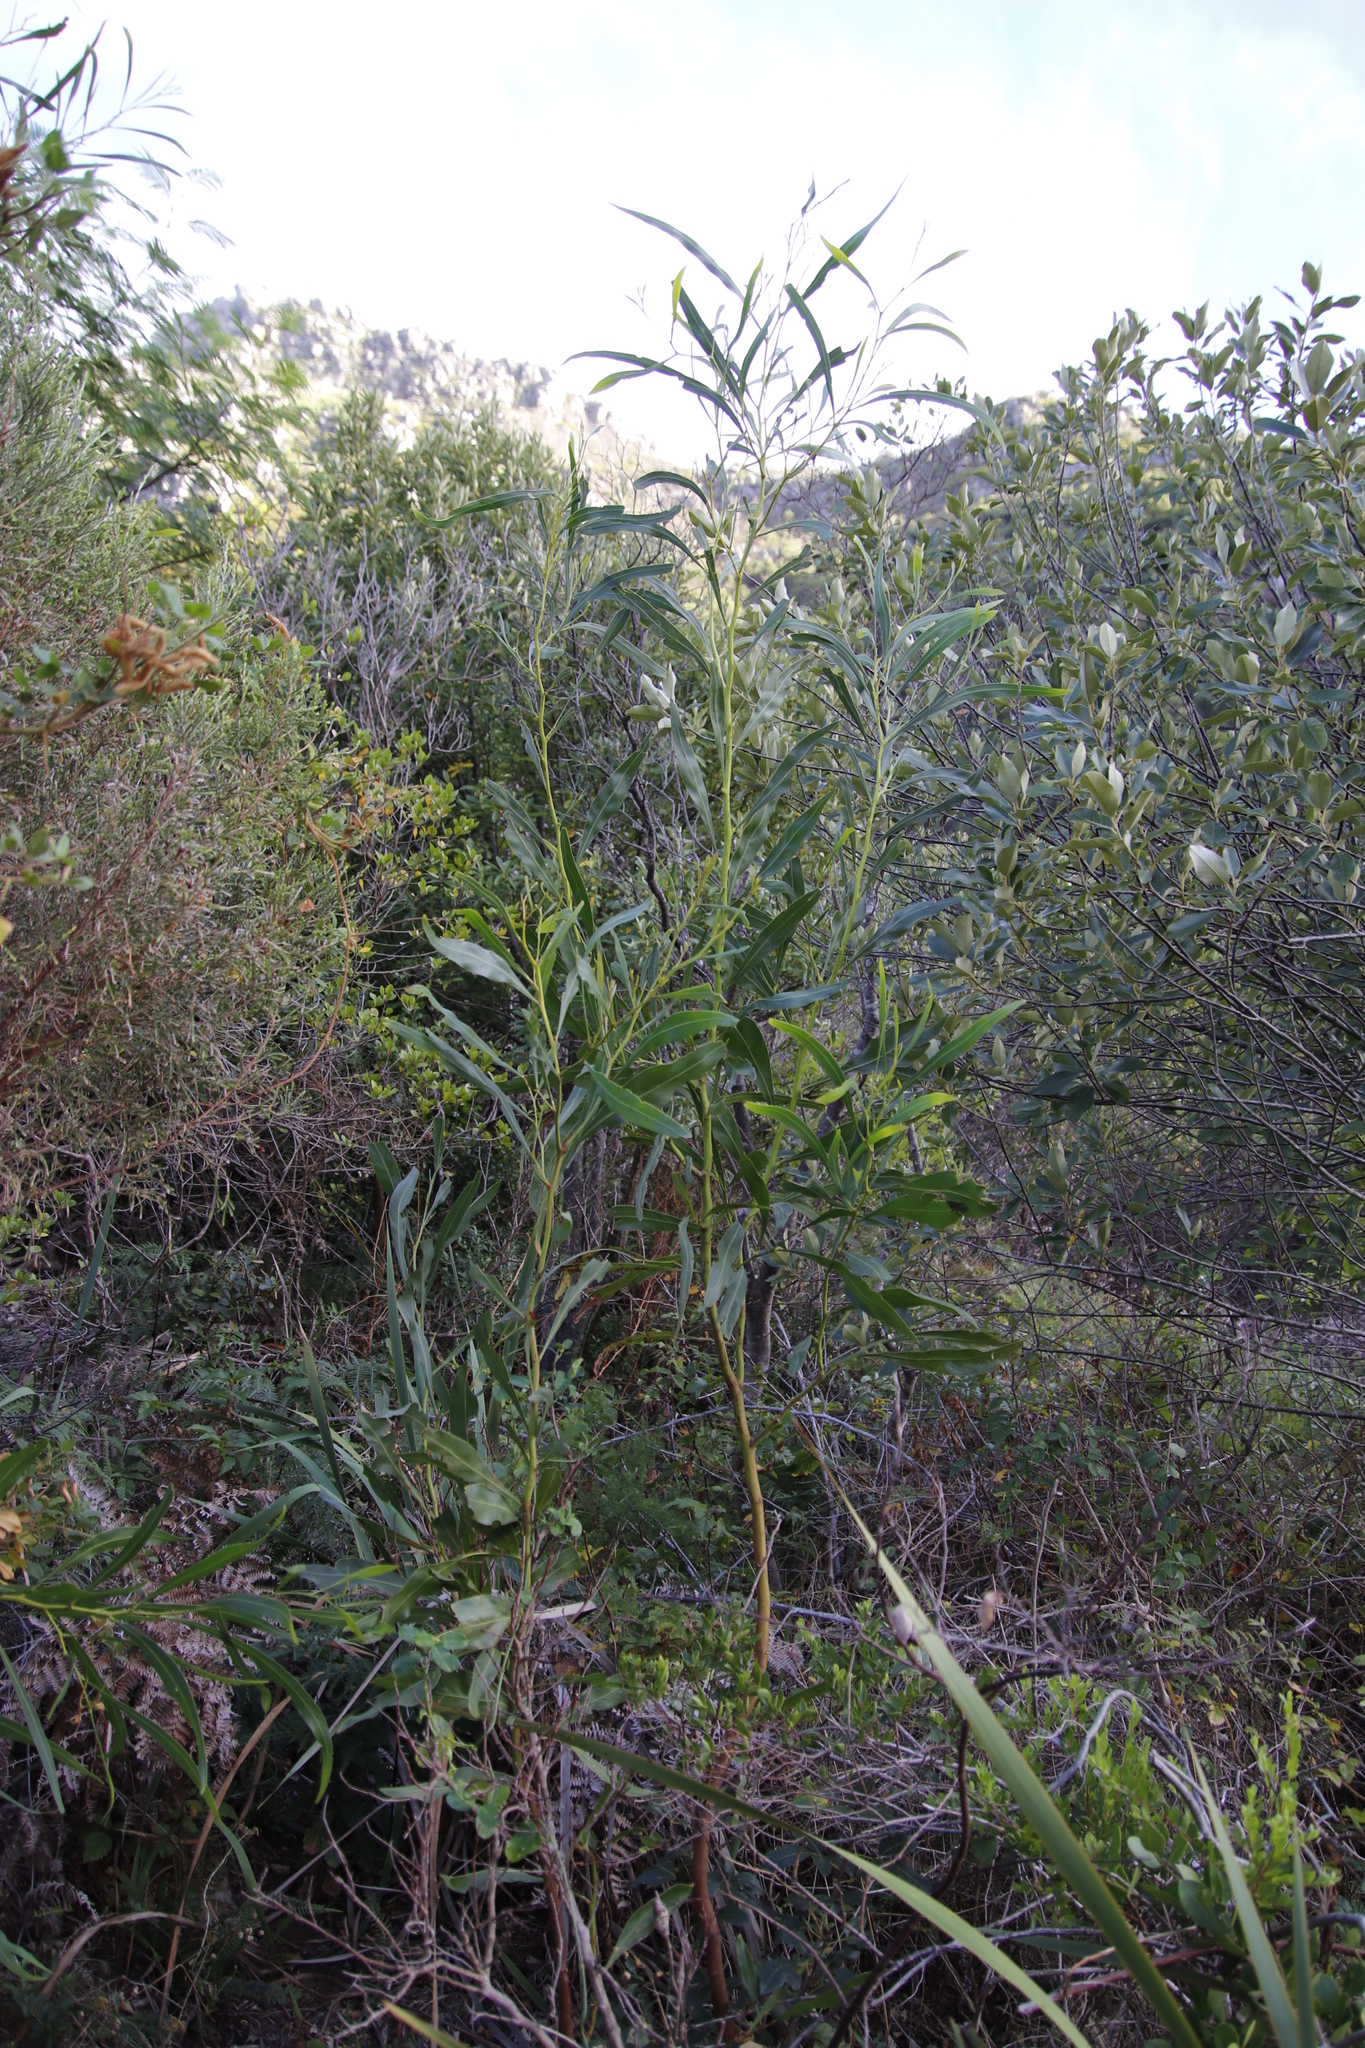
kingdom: Plantae
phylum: Tracheophyta
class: Magnoliopsida
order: Fabales
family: Fabaceae
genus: Acacia
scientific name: Acacia saligna
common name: Orange wattle
